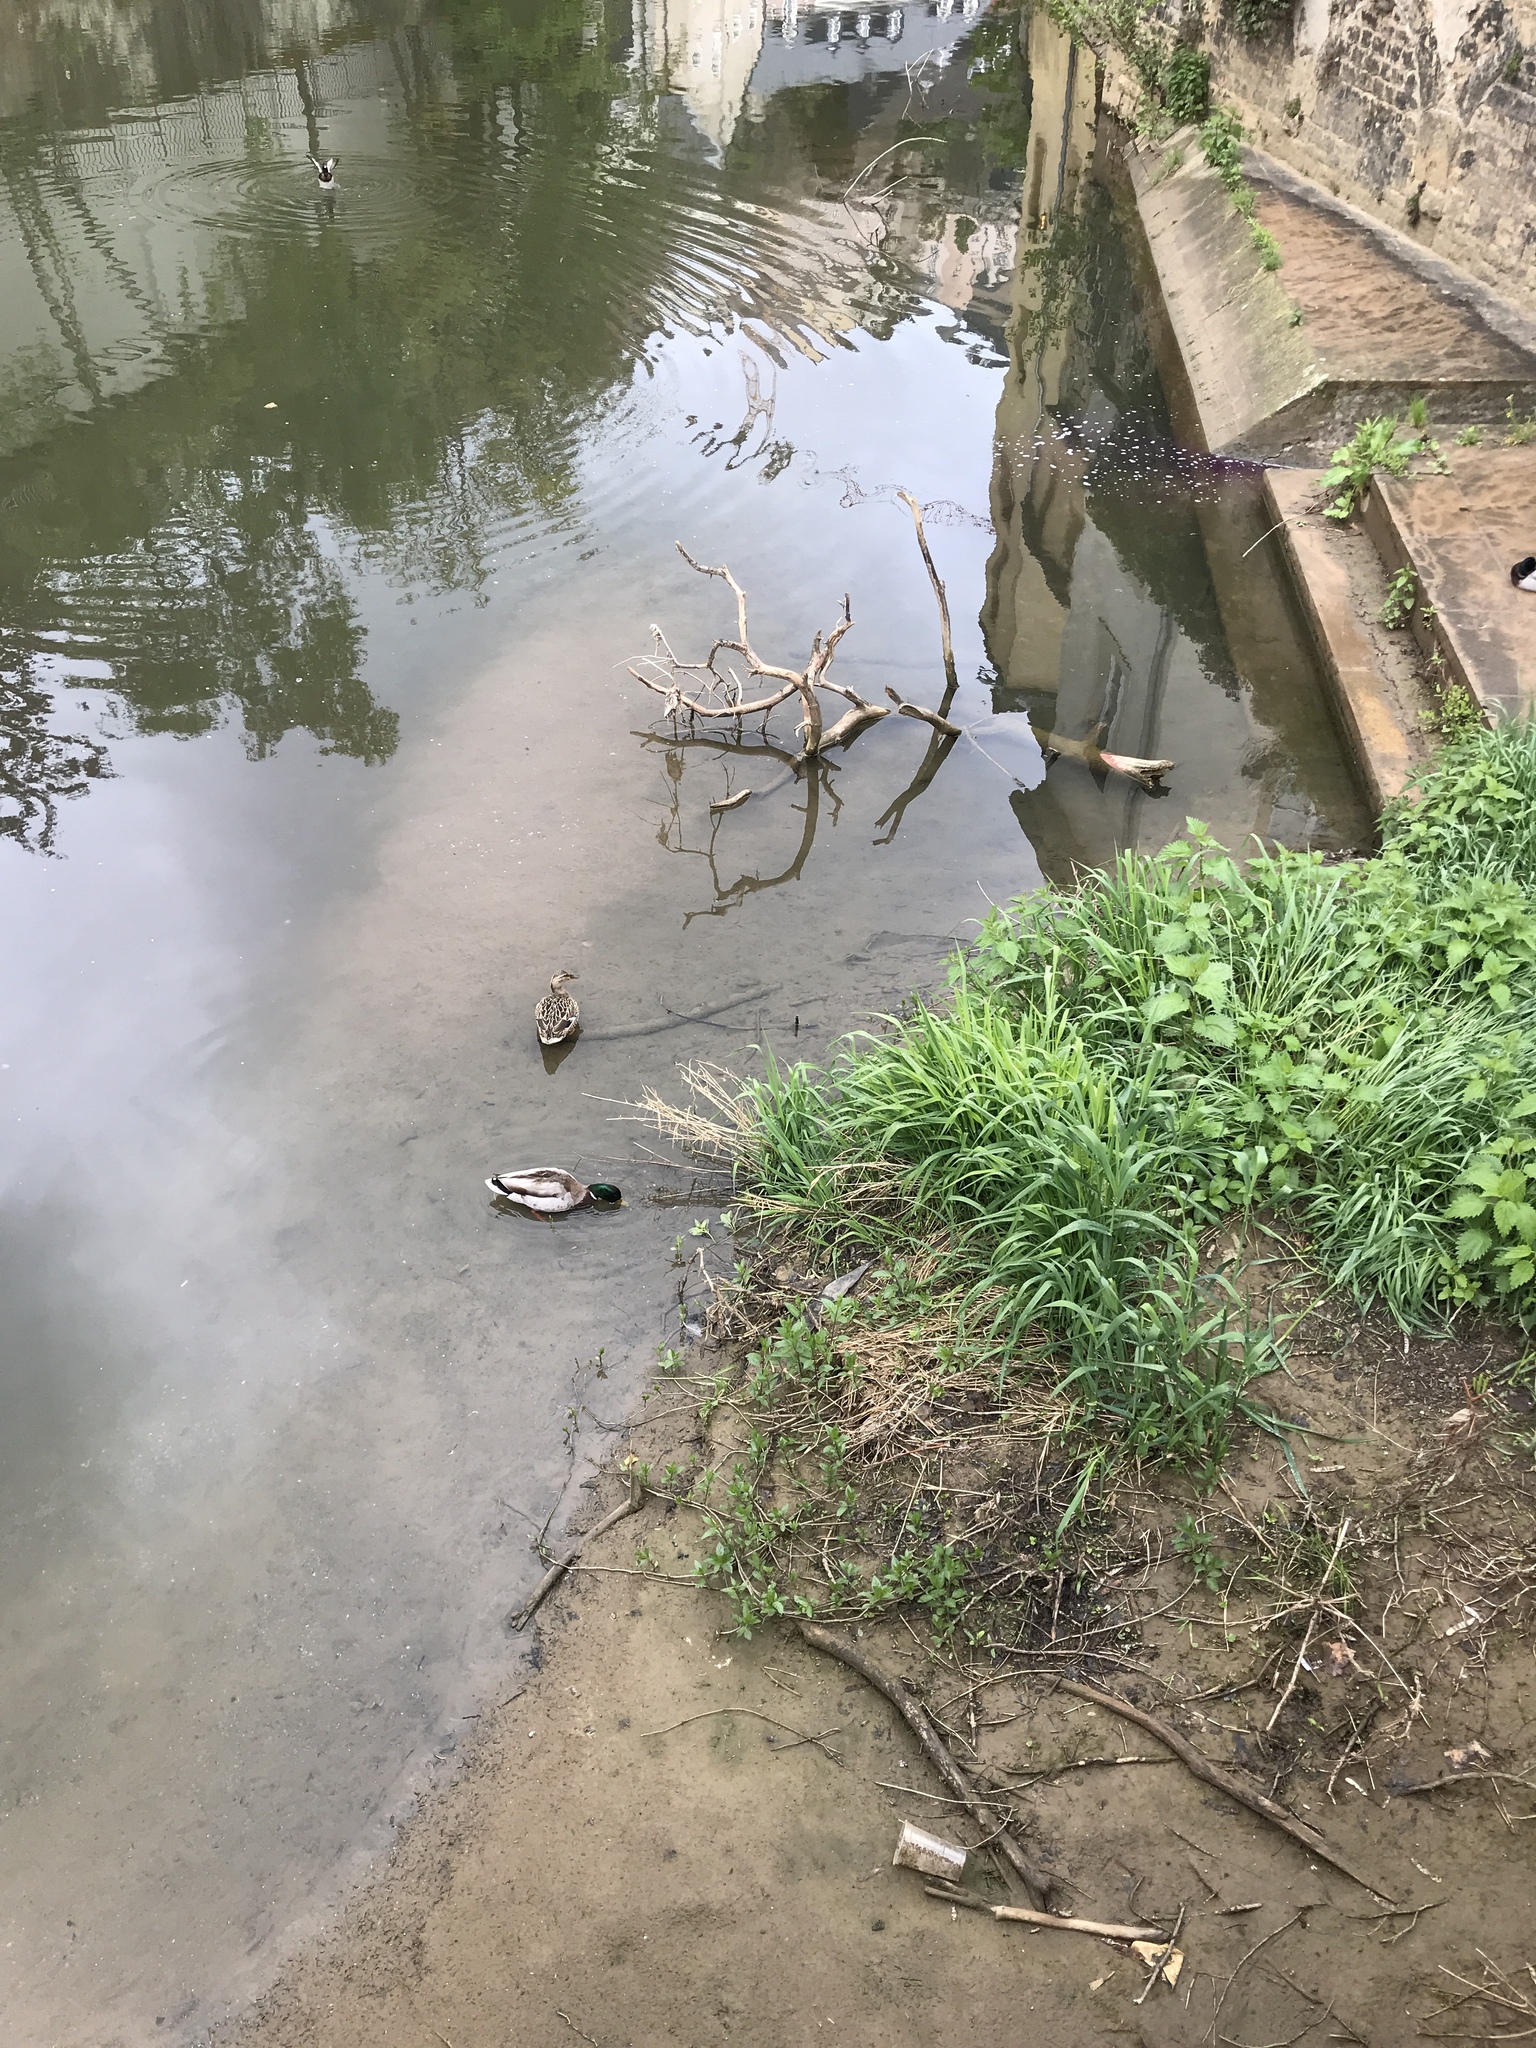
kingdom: Animalia
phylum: Chordata
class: Aves
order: Anseriformes
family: Anatidae
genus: Anas
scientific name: Anas platyrhynchos
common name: Mallard
